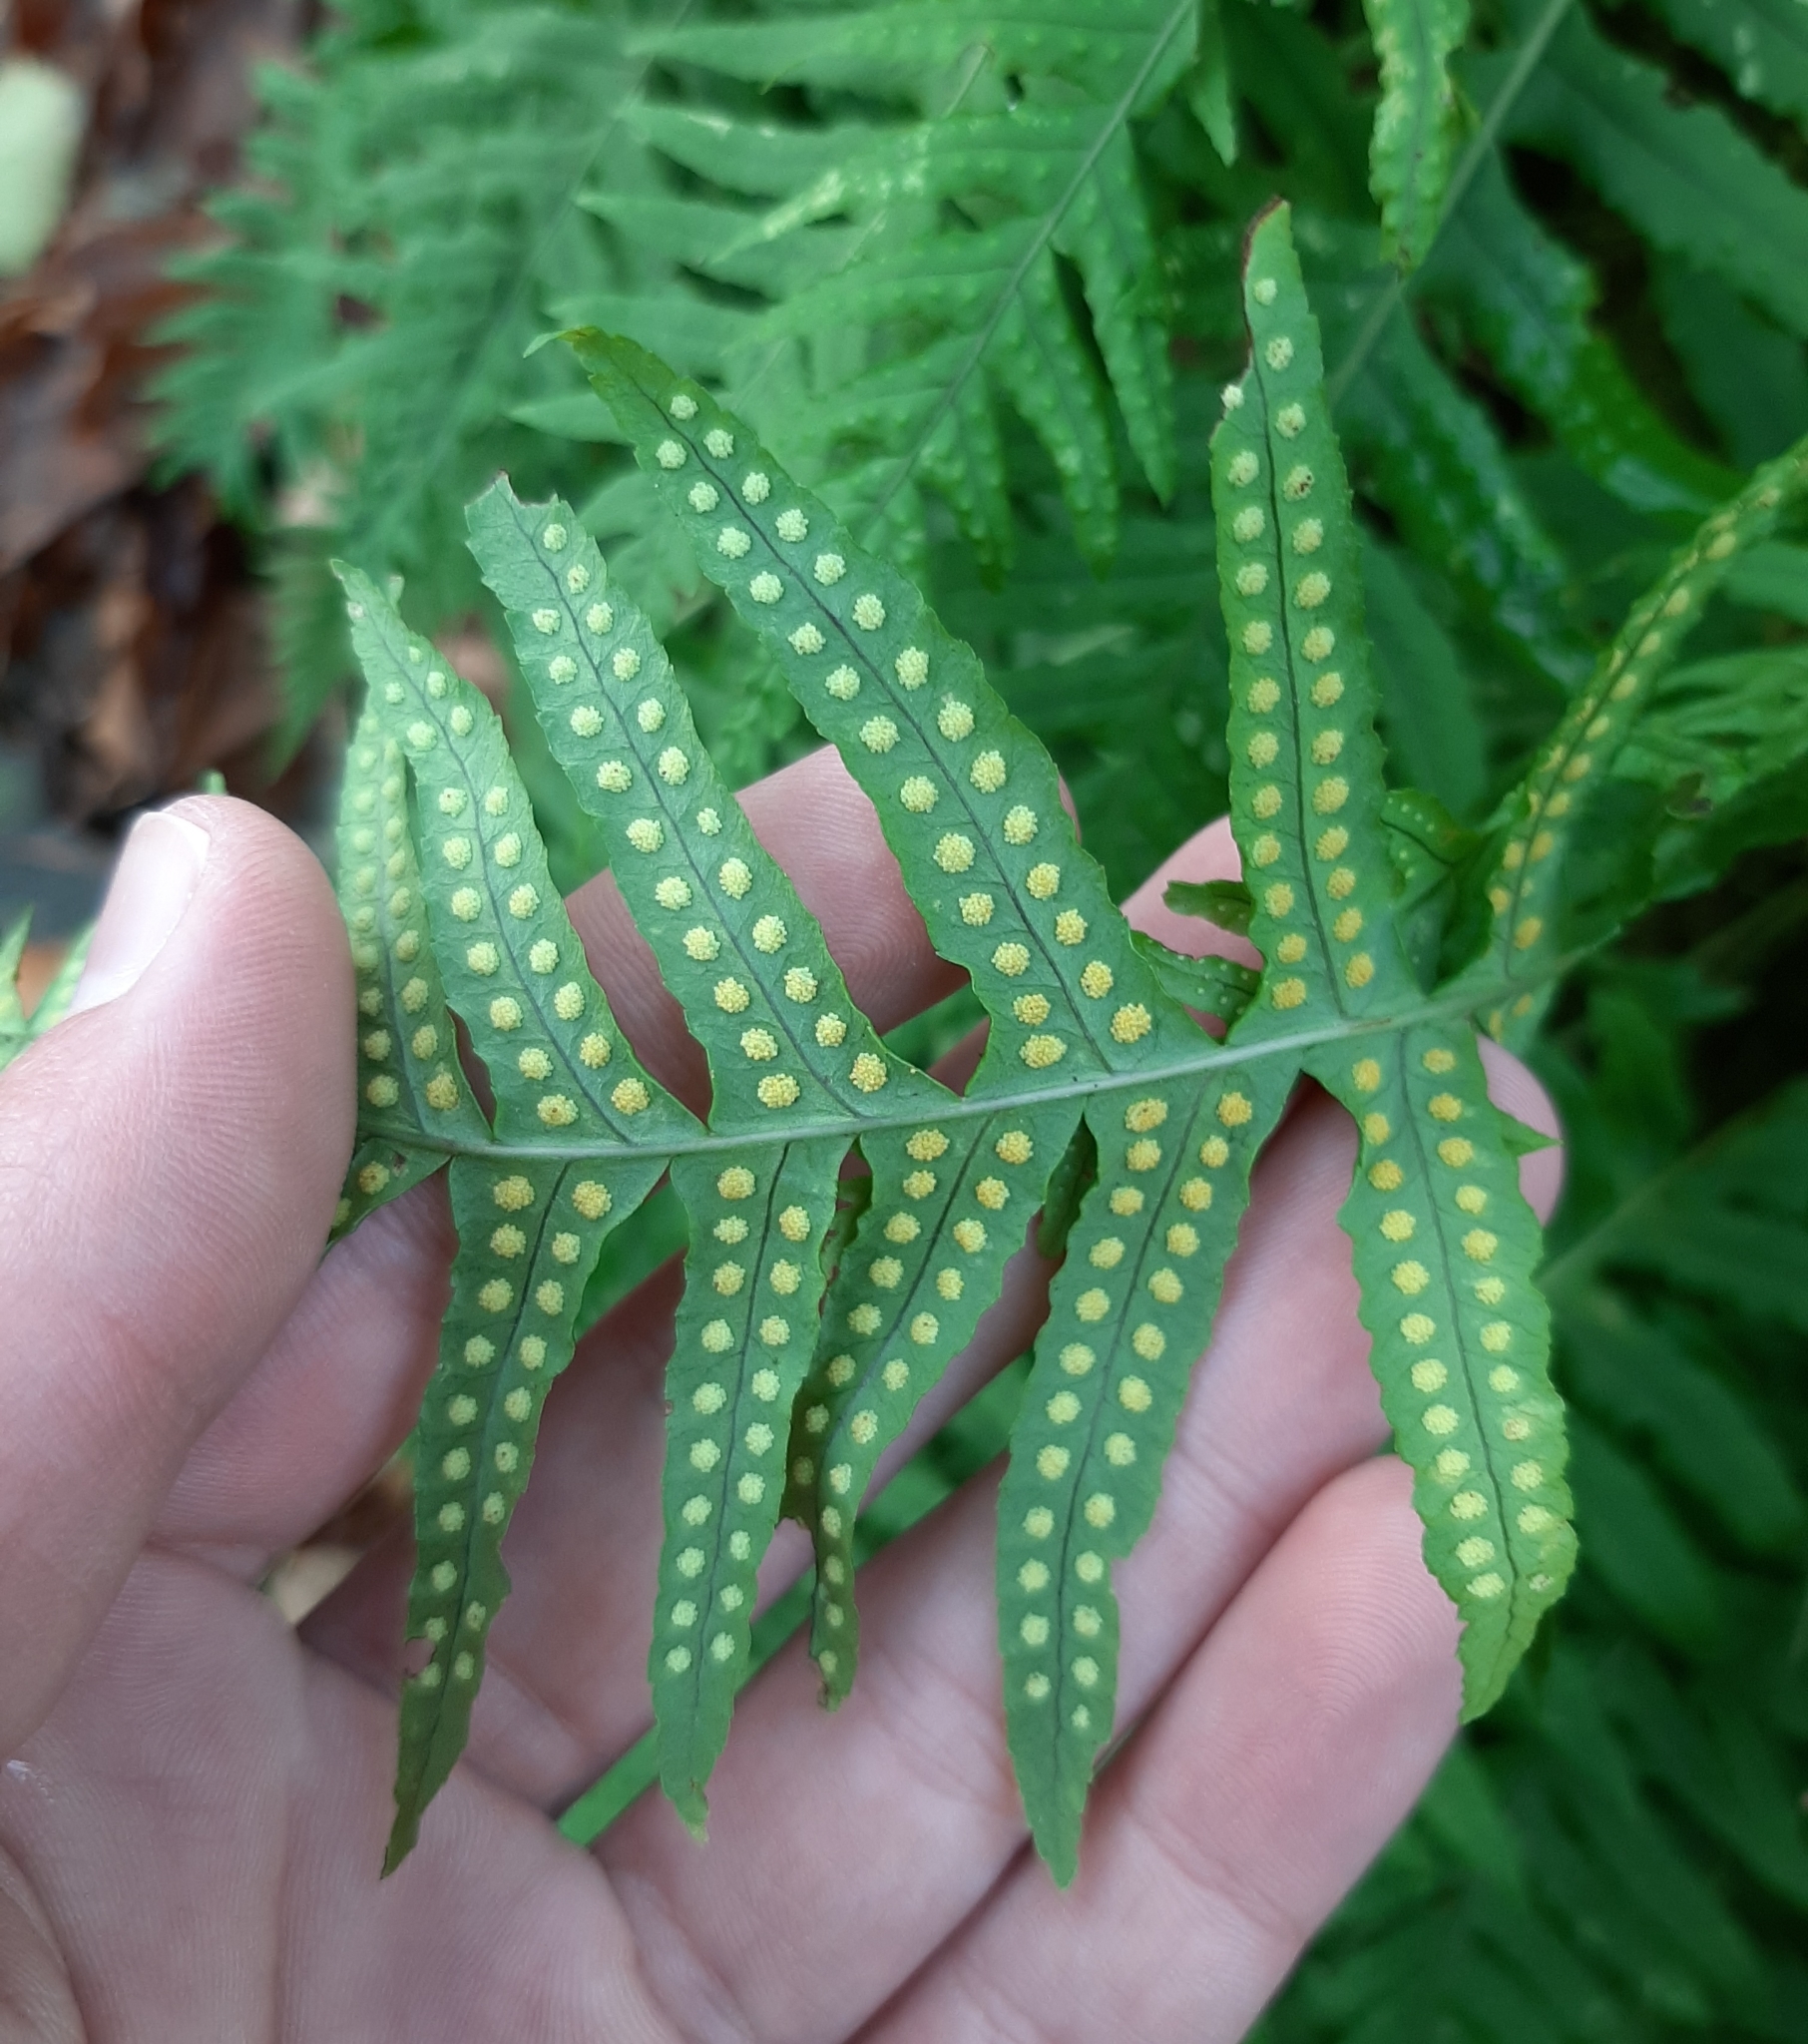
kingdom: Plantae
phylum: Tracheophyta
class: Polypodiopsida
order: Polypodiales
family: Polypodiaceae
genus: Polypodium
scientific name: Polypodium glycyrrhiza
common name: Licorice fern
